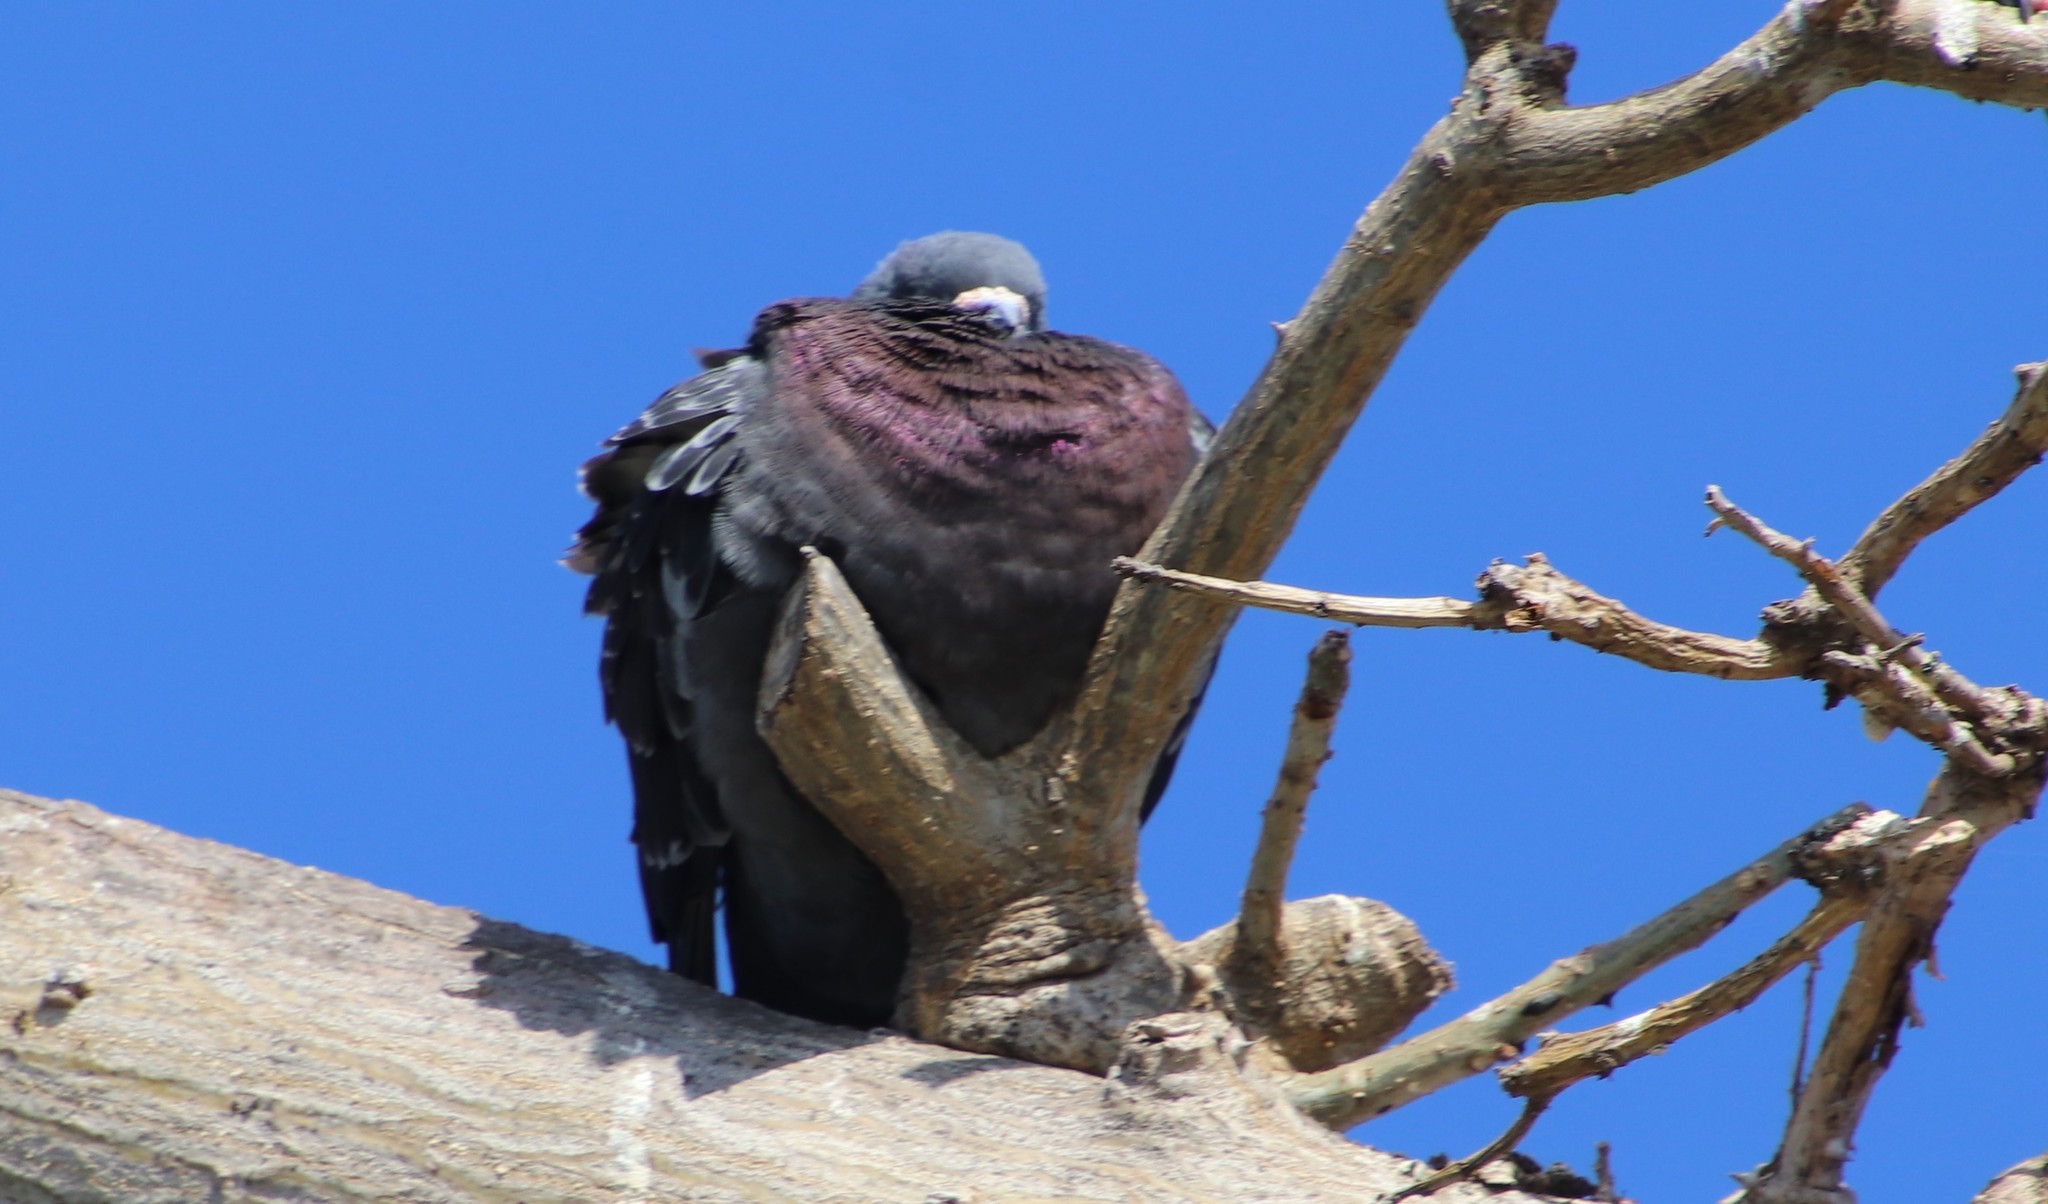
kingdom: Animalia
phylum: Chordata
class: Aves
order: Columbiformes
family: Columbidae
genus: Columba
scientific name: Columba livia
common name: Rock pigeon
